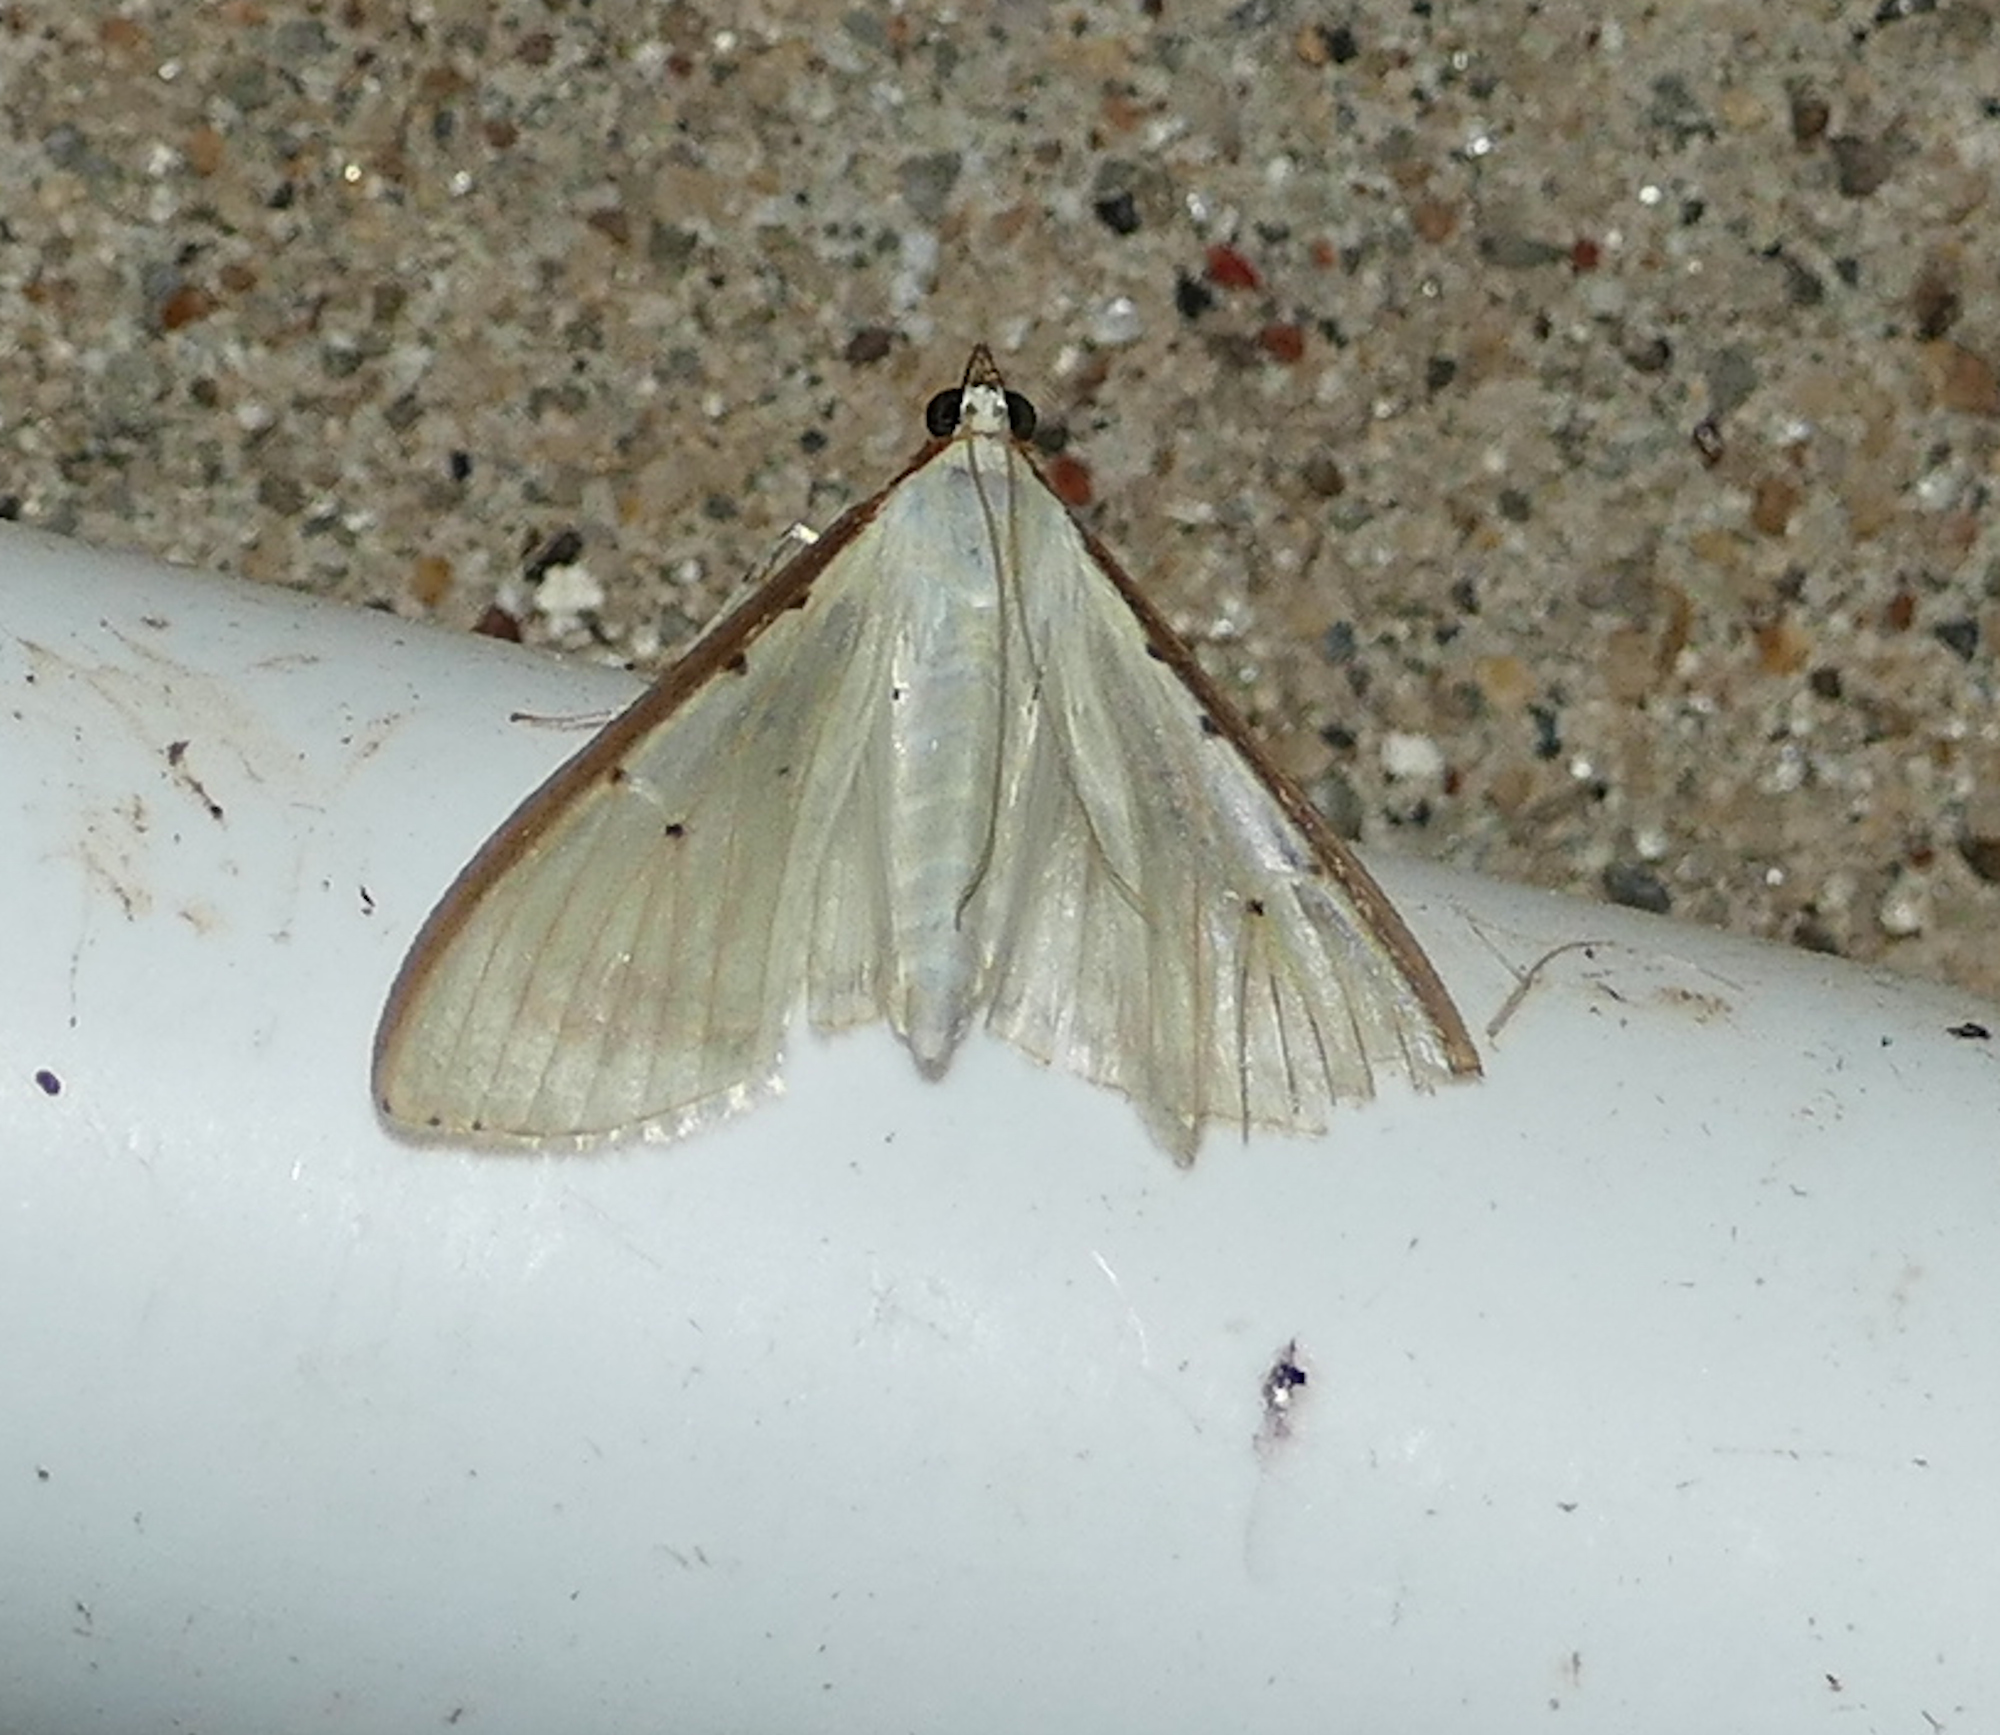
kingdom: Animalia
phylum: Arthropoda
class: Insecta
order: Lepidoptera
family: Crambidae
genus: Palpita
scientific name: Palpita quadristigmalis
